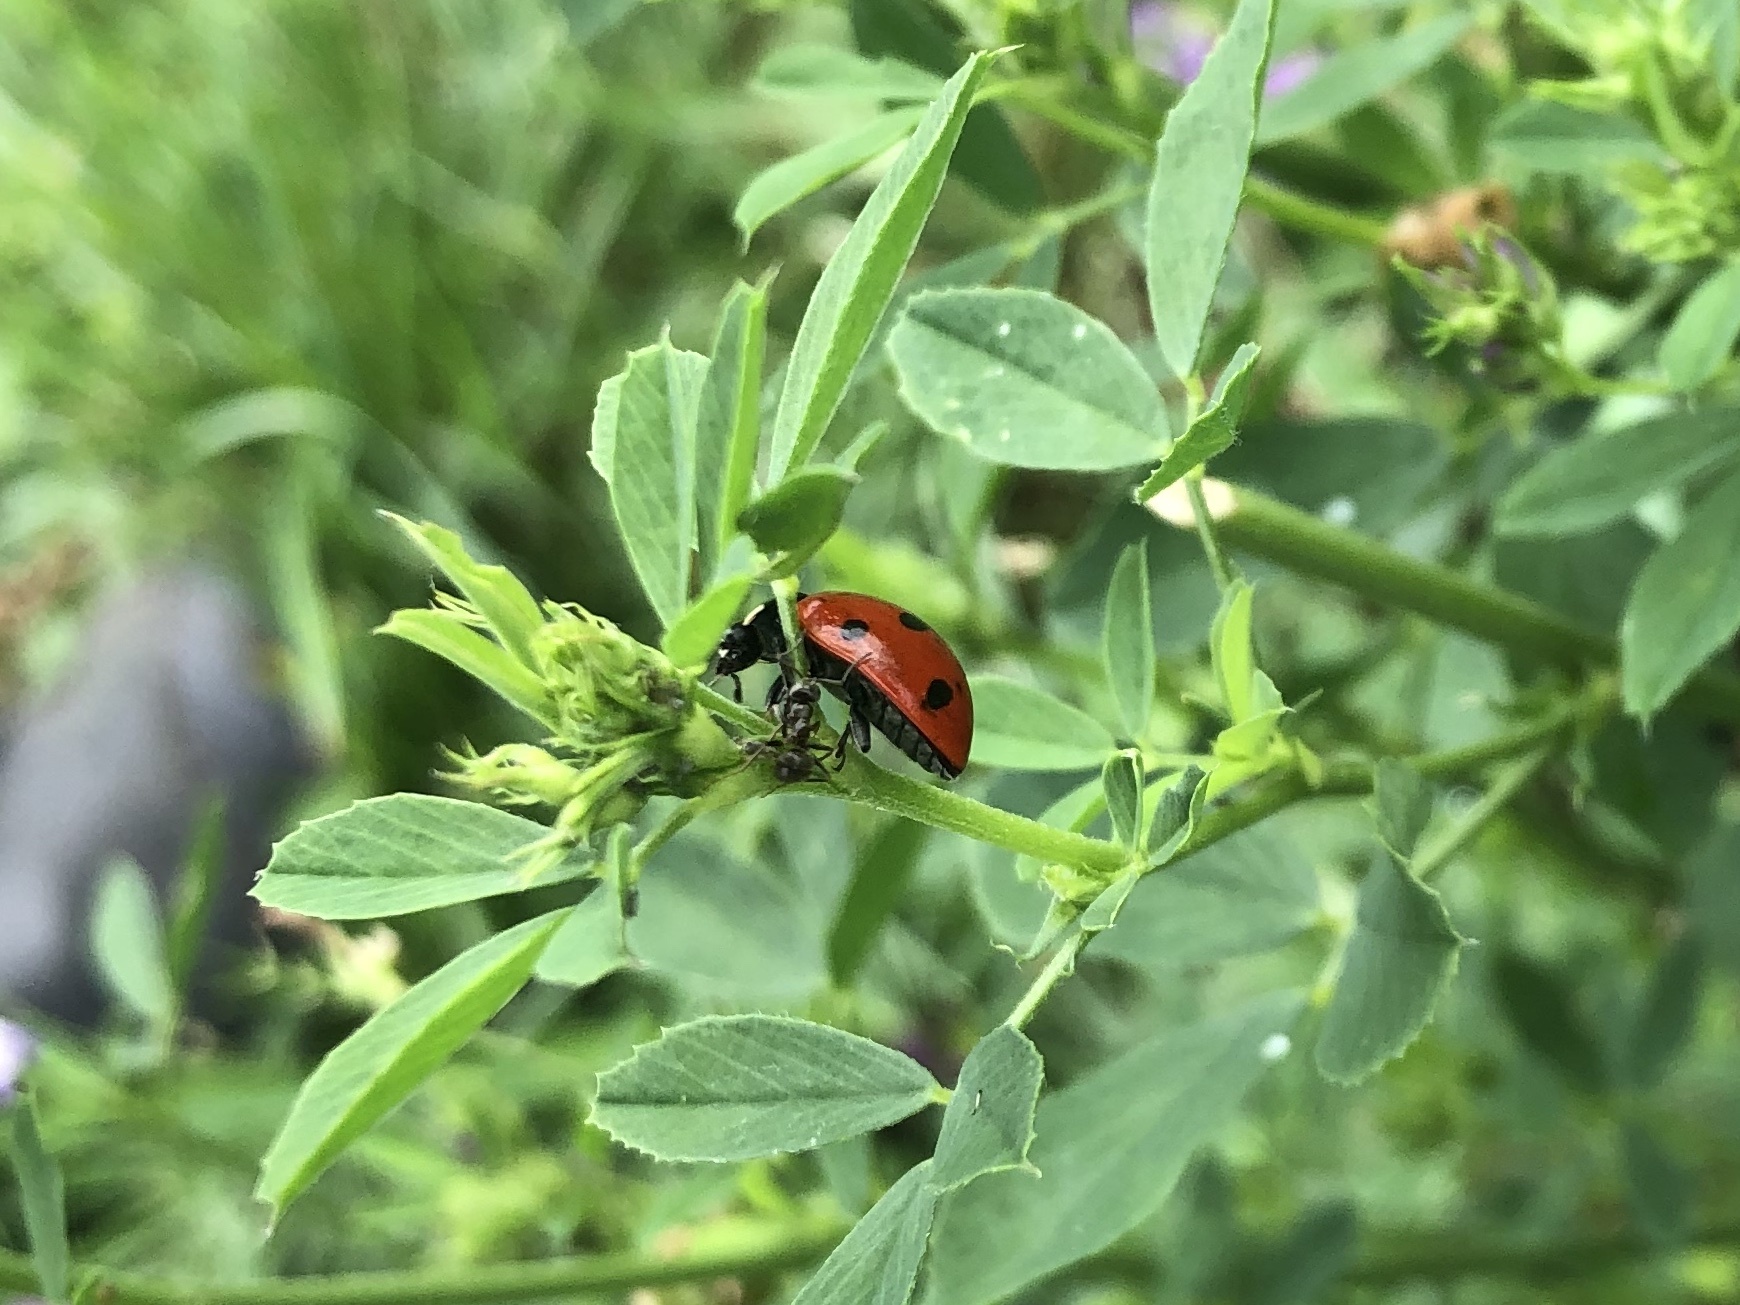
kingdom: Animalia
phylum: Arthropoda
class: Insecta
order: Coleoptera
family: Coccinellidae
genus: Coccinella
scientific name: Coccinella septempunctata
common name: Sevenspotted lady beetle
